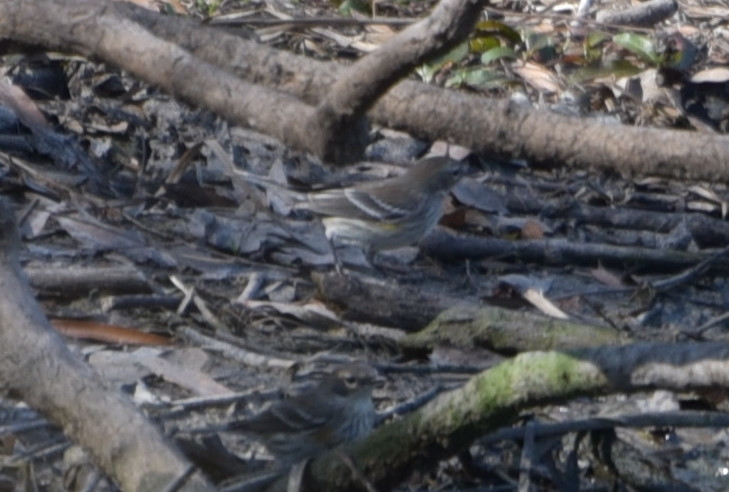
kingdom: Animalia
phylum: Chordata
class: Aves
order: Passeriformes
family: Parulidae
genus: Setophaga
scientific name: Setophaga coronata
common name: Myrtle warbler
